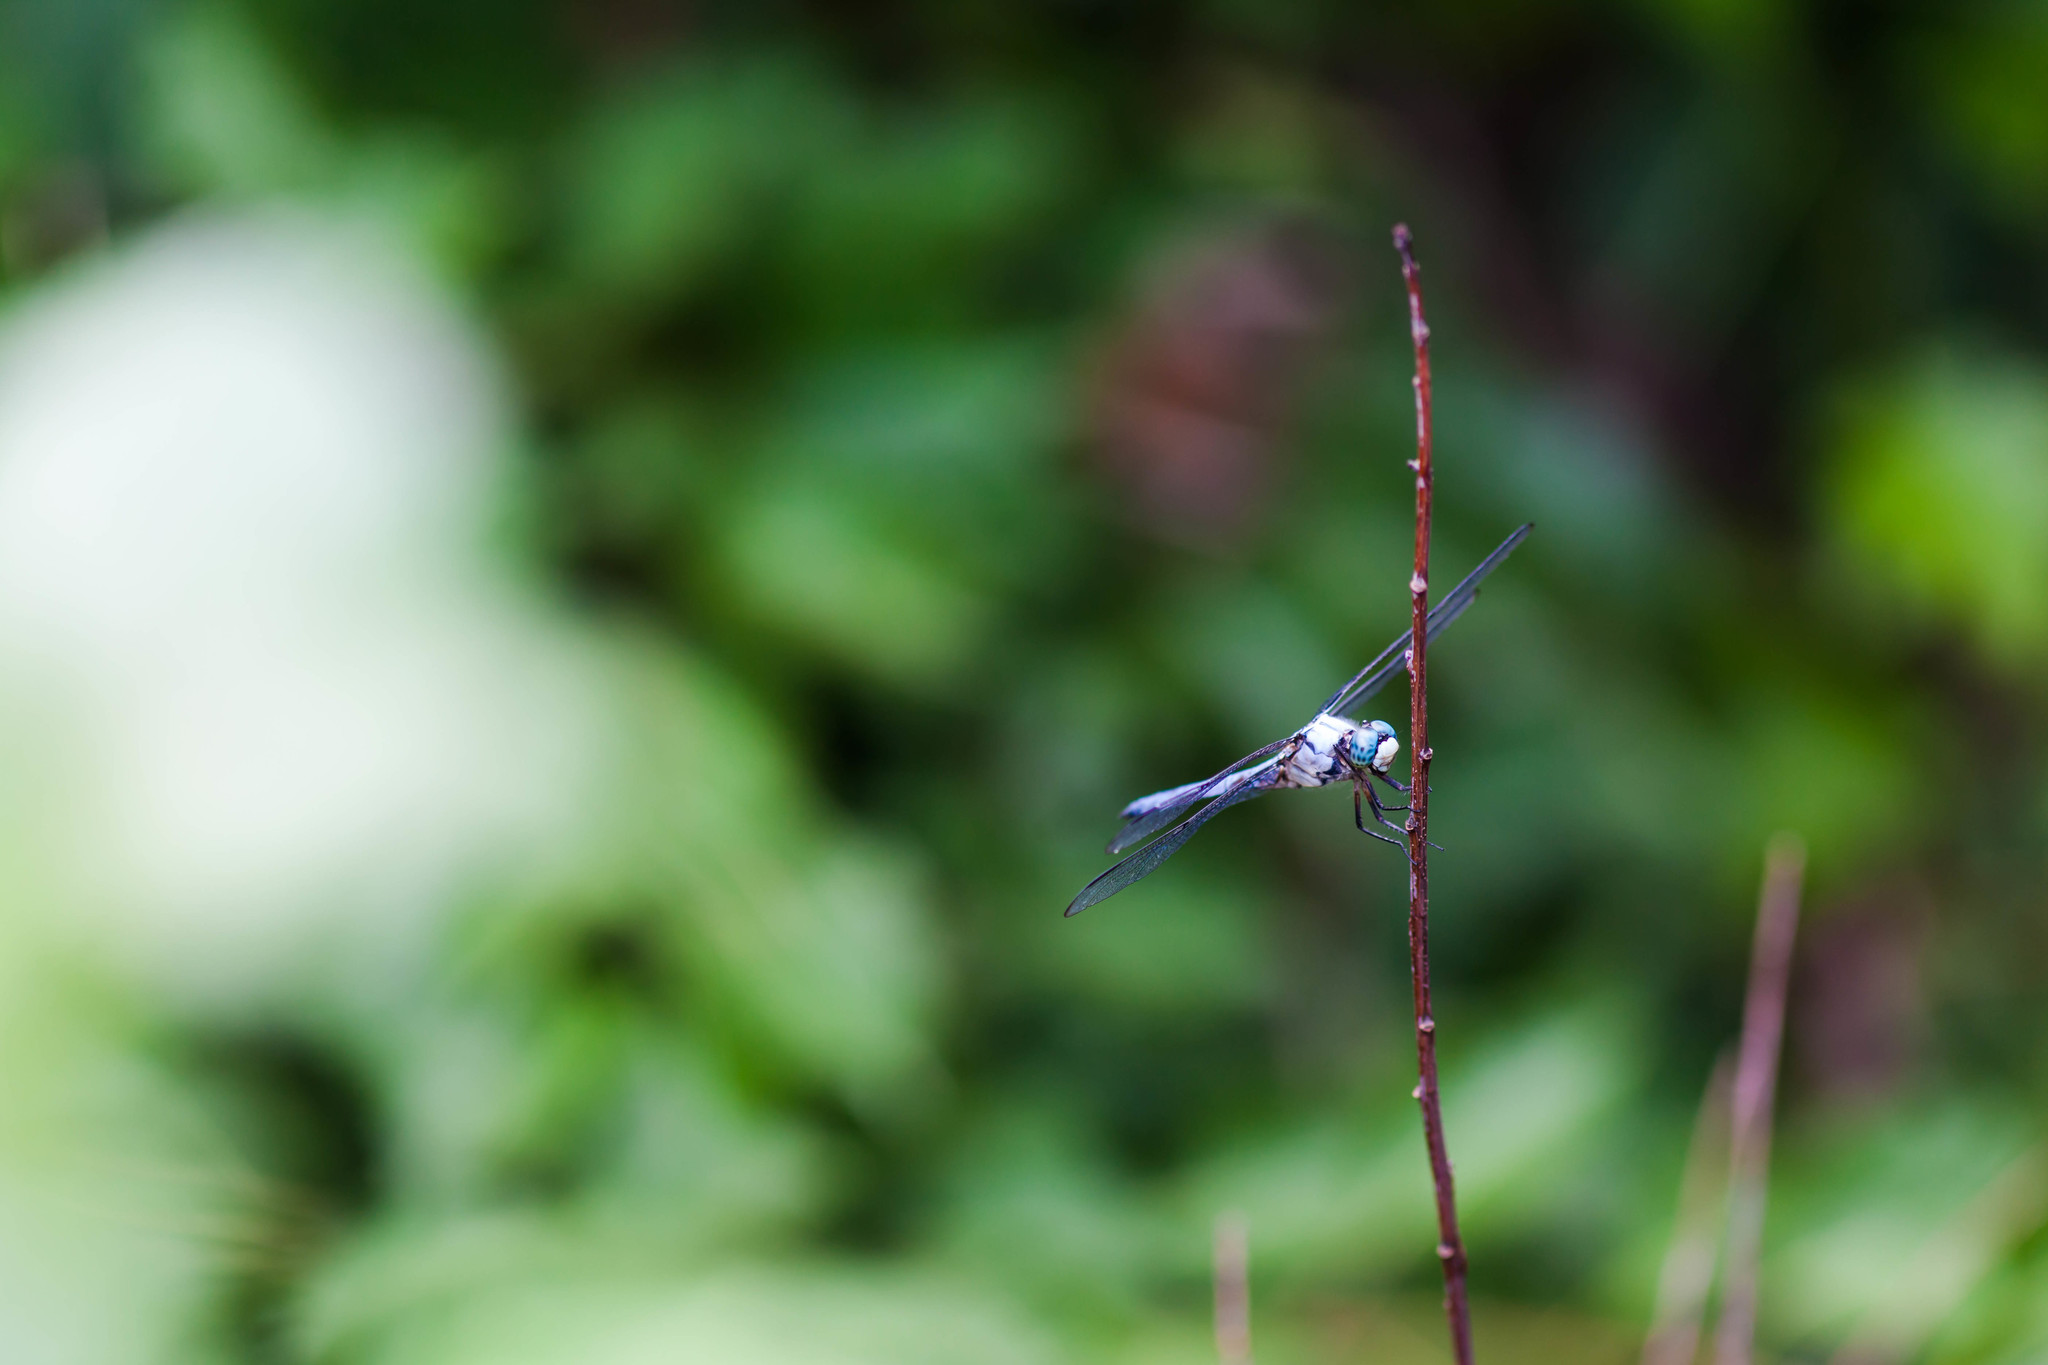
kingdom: Animalia
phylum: Arthropoda
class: Insecta
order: Odonata
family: Libellulidae
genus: Libellula
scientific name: Libellula vibrans
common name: Great blue skimmer
